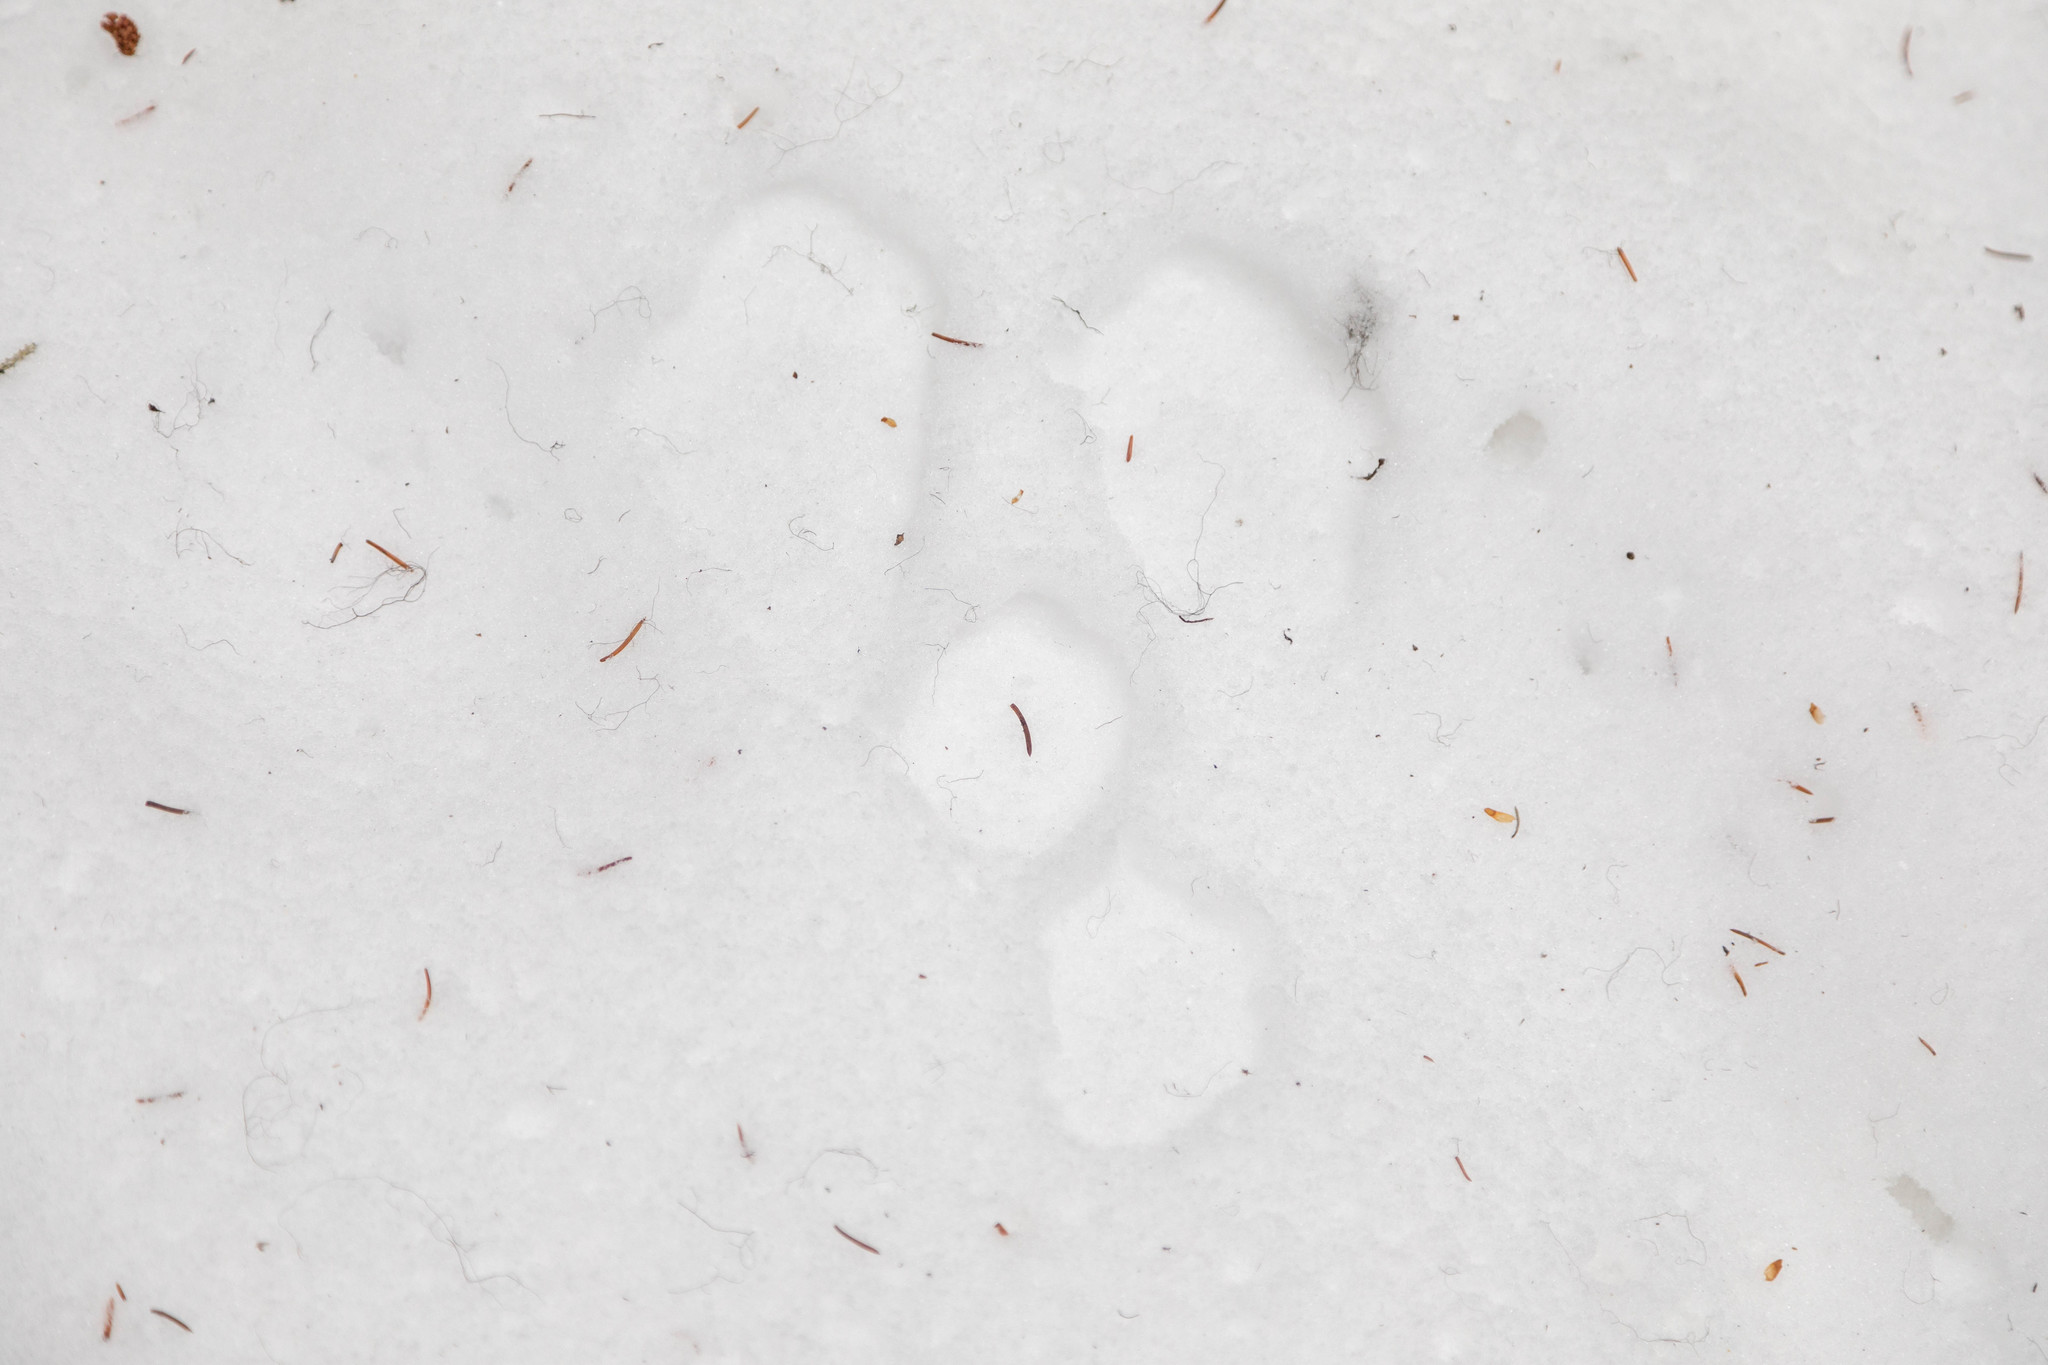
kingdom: Animalia
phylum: Chordata
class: Mammalia
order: Lagomorpha
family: Leporidae
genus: Lepus
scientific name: Lepus americanus
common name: Snowshoe hare
